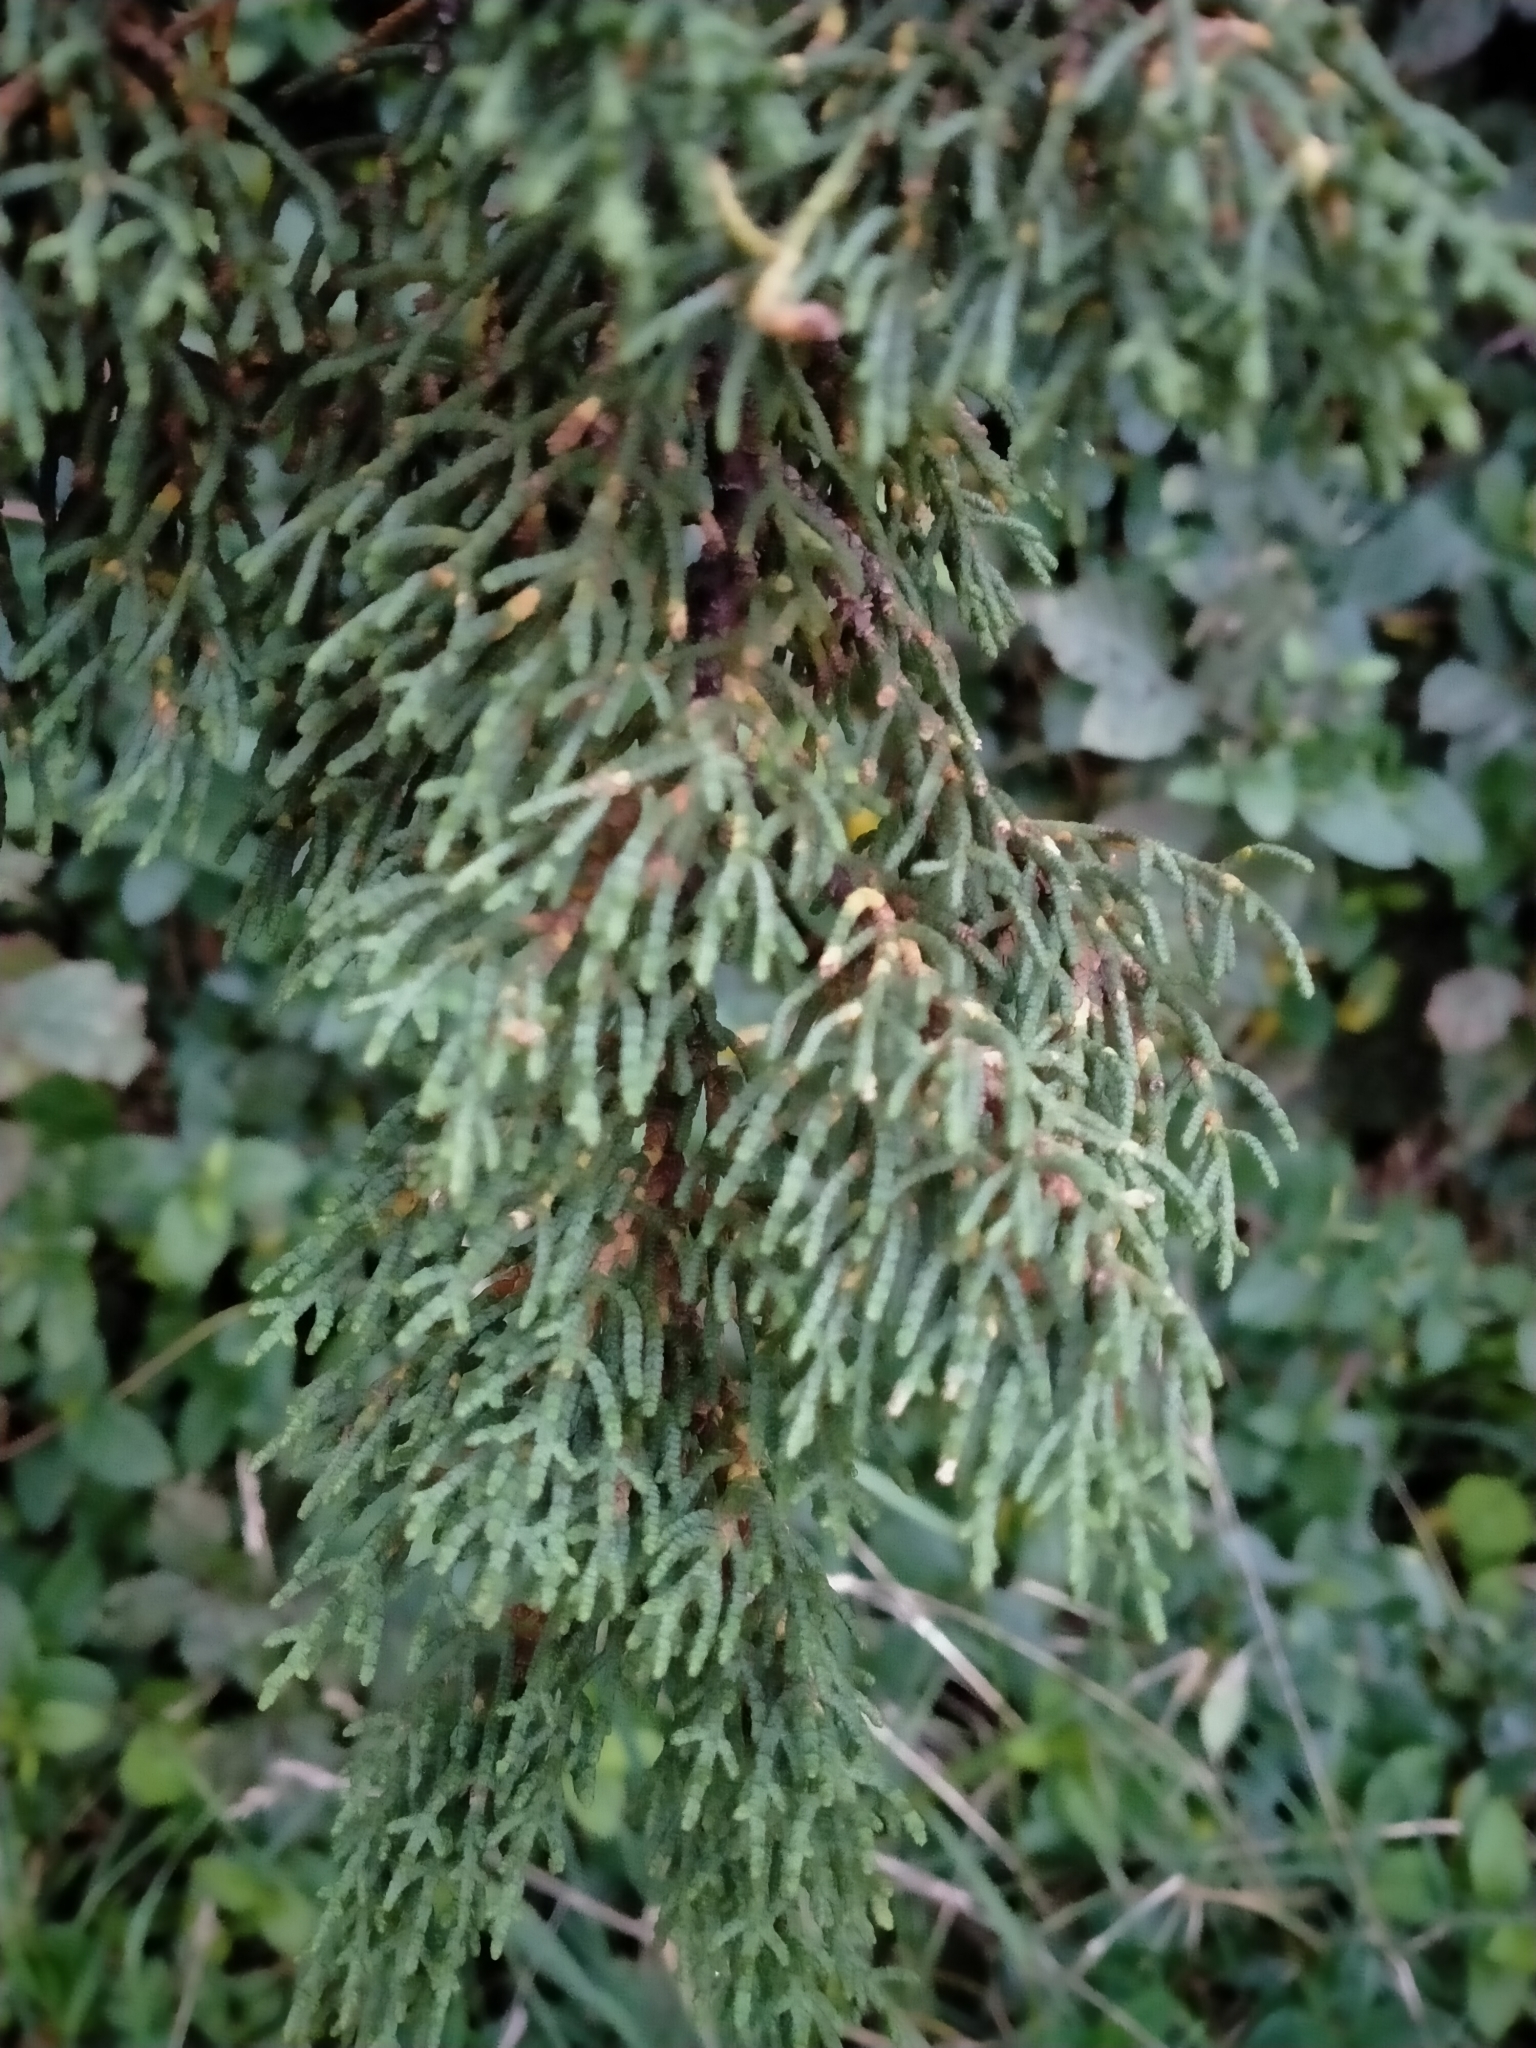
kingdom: Plantae
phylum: Tracheophyta
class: Pinopsida
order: Pinales
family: Cupressaceae
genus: Cupressus
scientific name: Cupressus macrocarpa
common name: Monterey cypress
